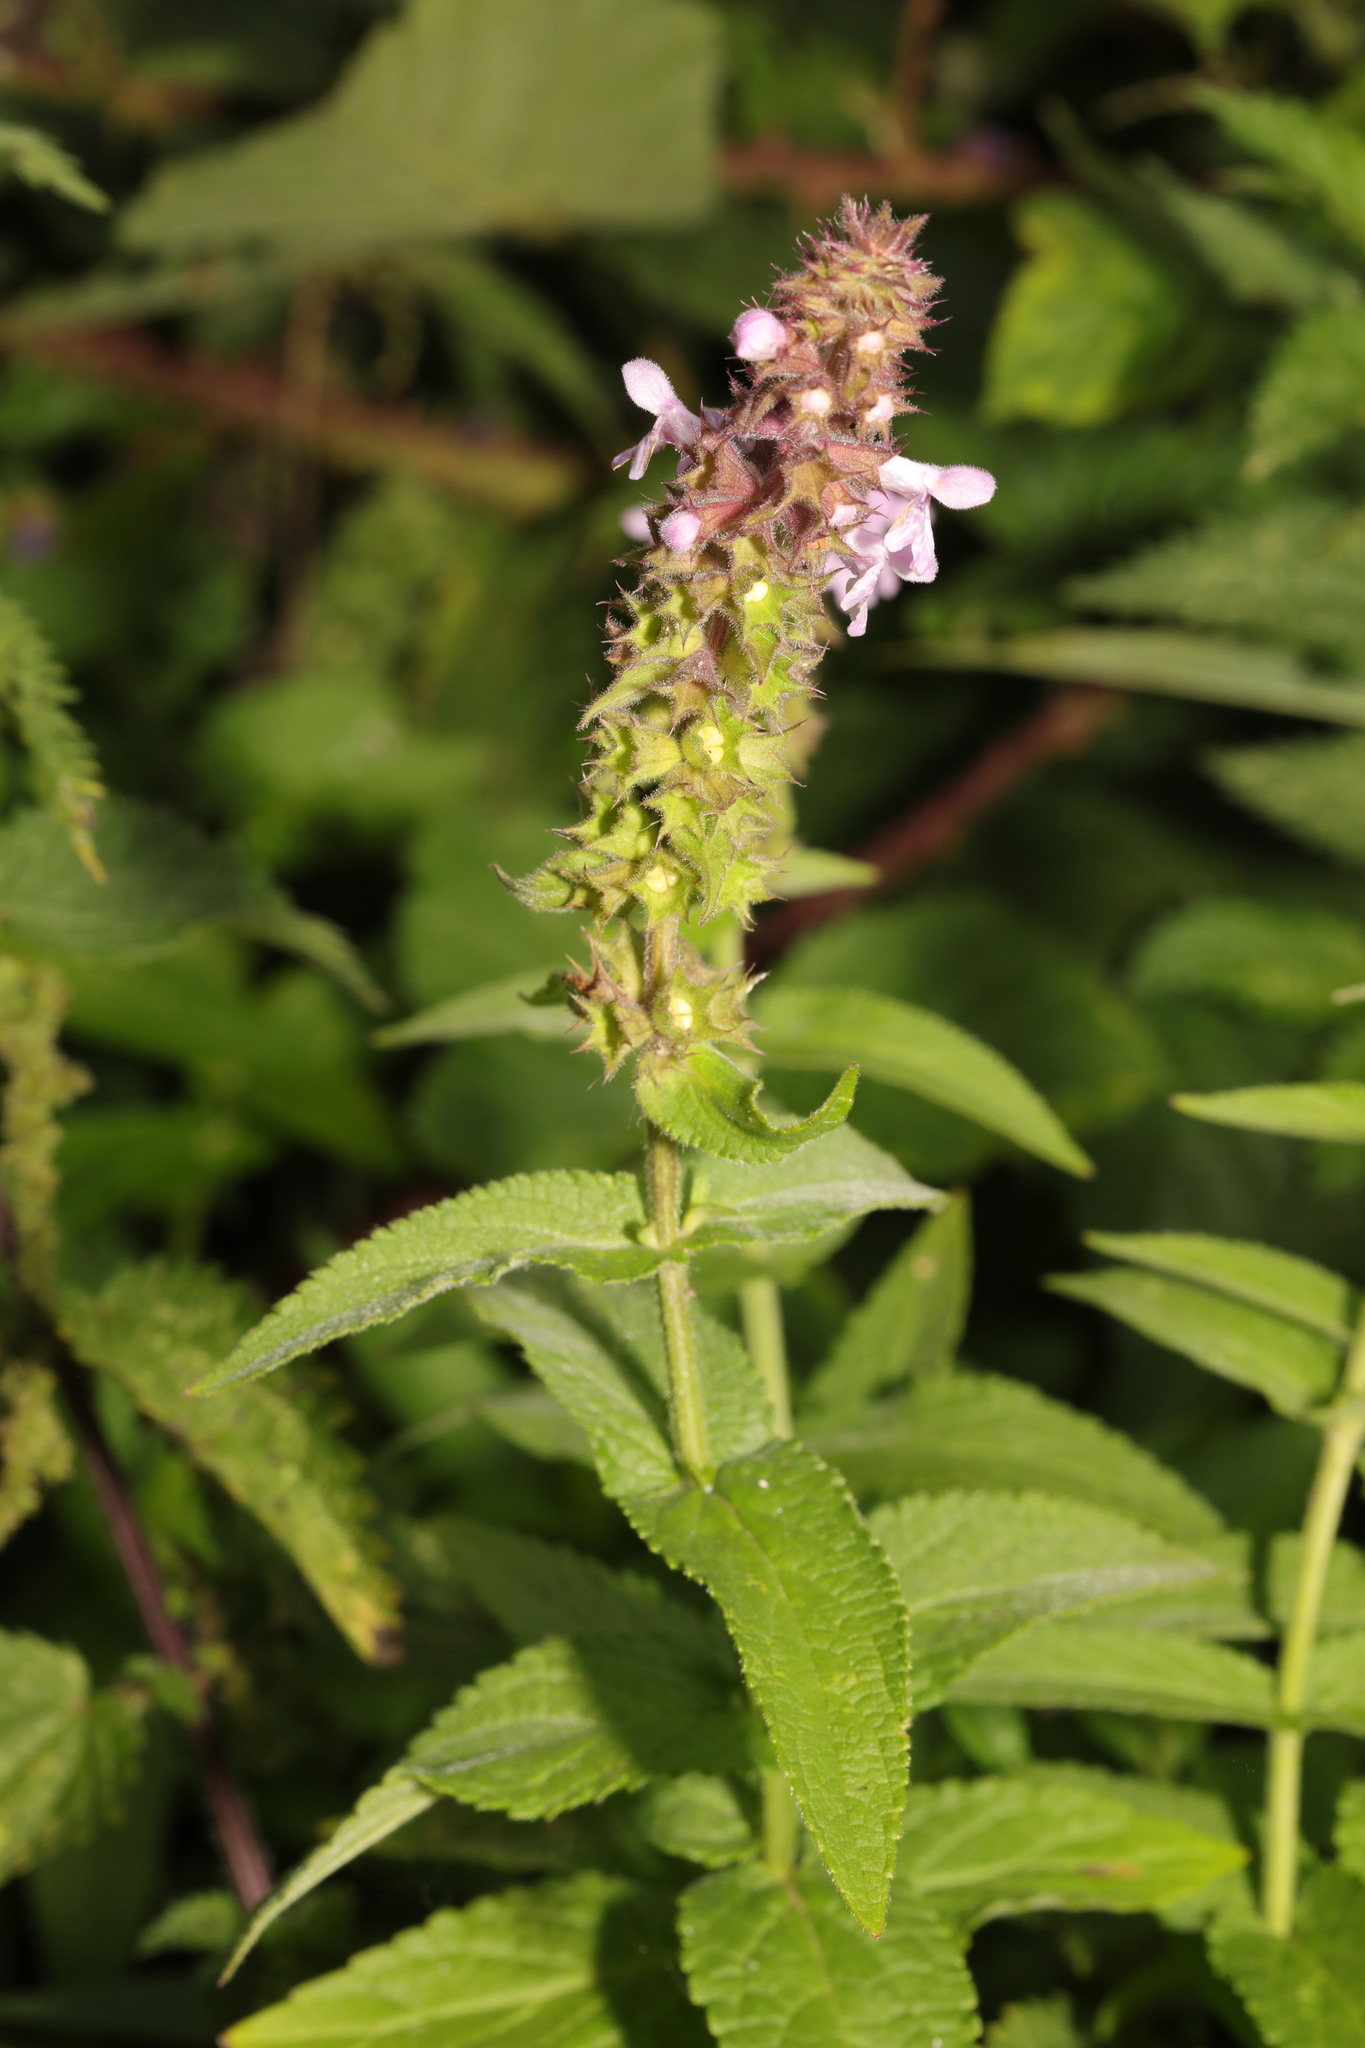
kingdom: Plantae
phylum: Tracheophyta
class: Magnoliopsida
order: Lamiales
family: Lamiaceae
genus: Stachys
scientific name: Stachys palustris
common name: Marsh woundwort
